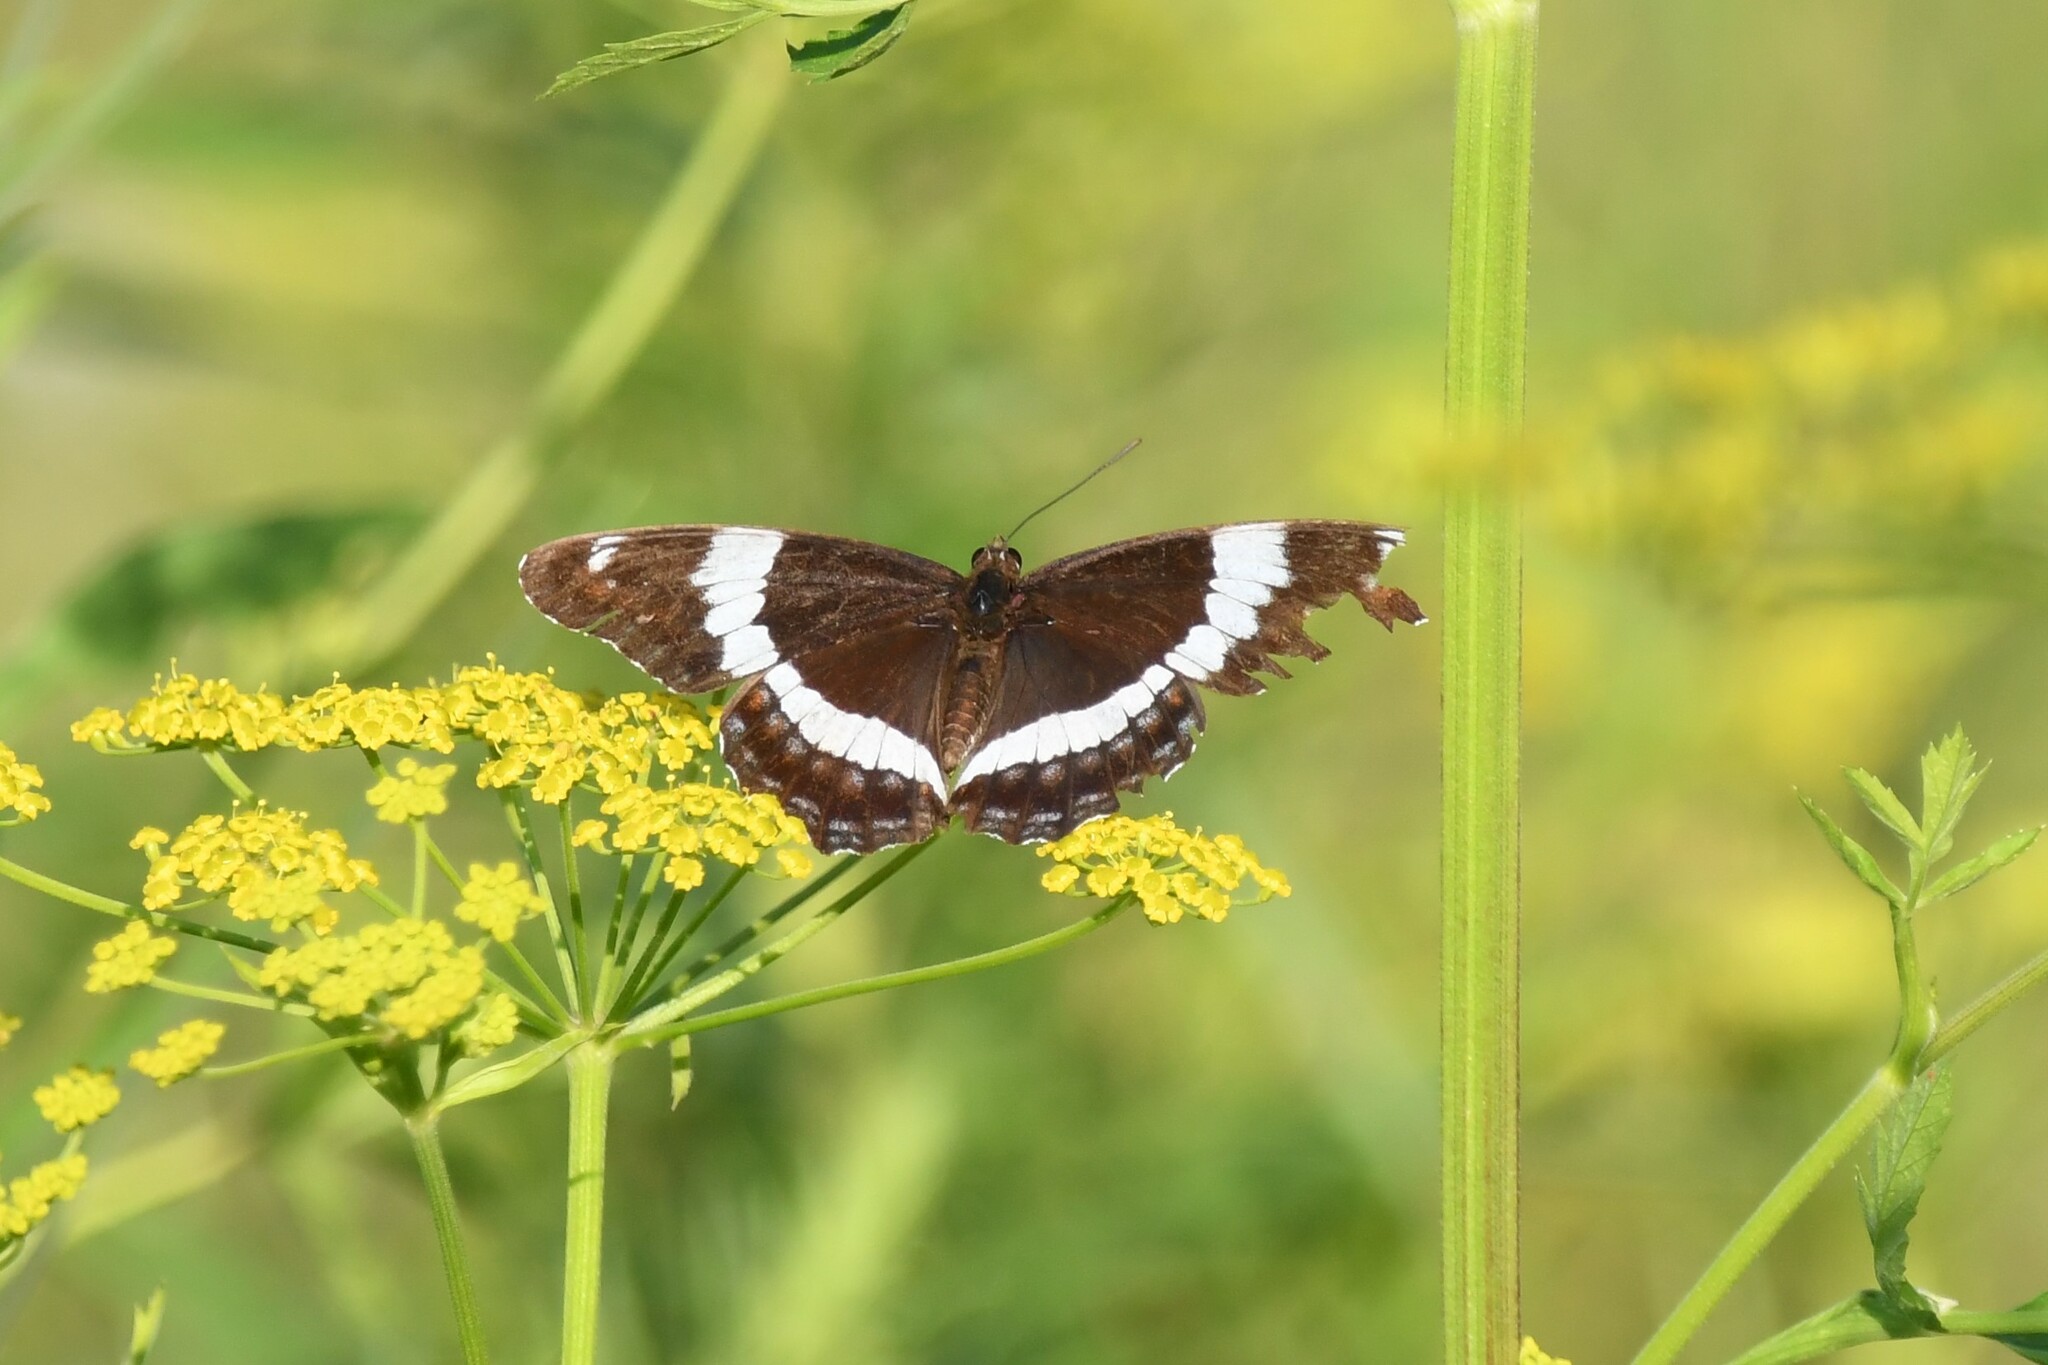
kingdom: Animalia
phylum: Arthropoda
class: Insecta
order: Lepidoptera
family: Nymphalidae
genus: Limenitis
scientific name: Limenitis arthemis
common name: Red-spotted admiral
